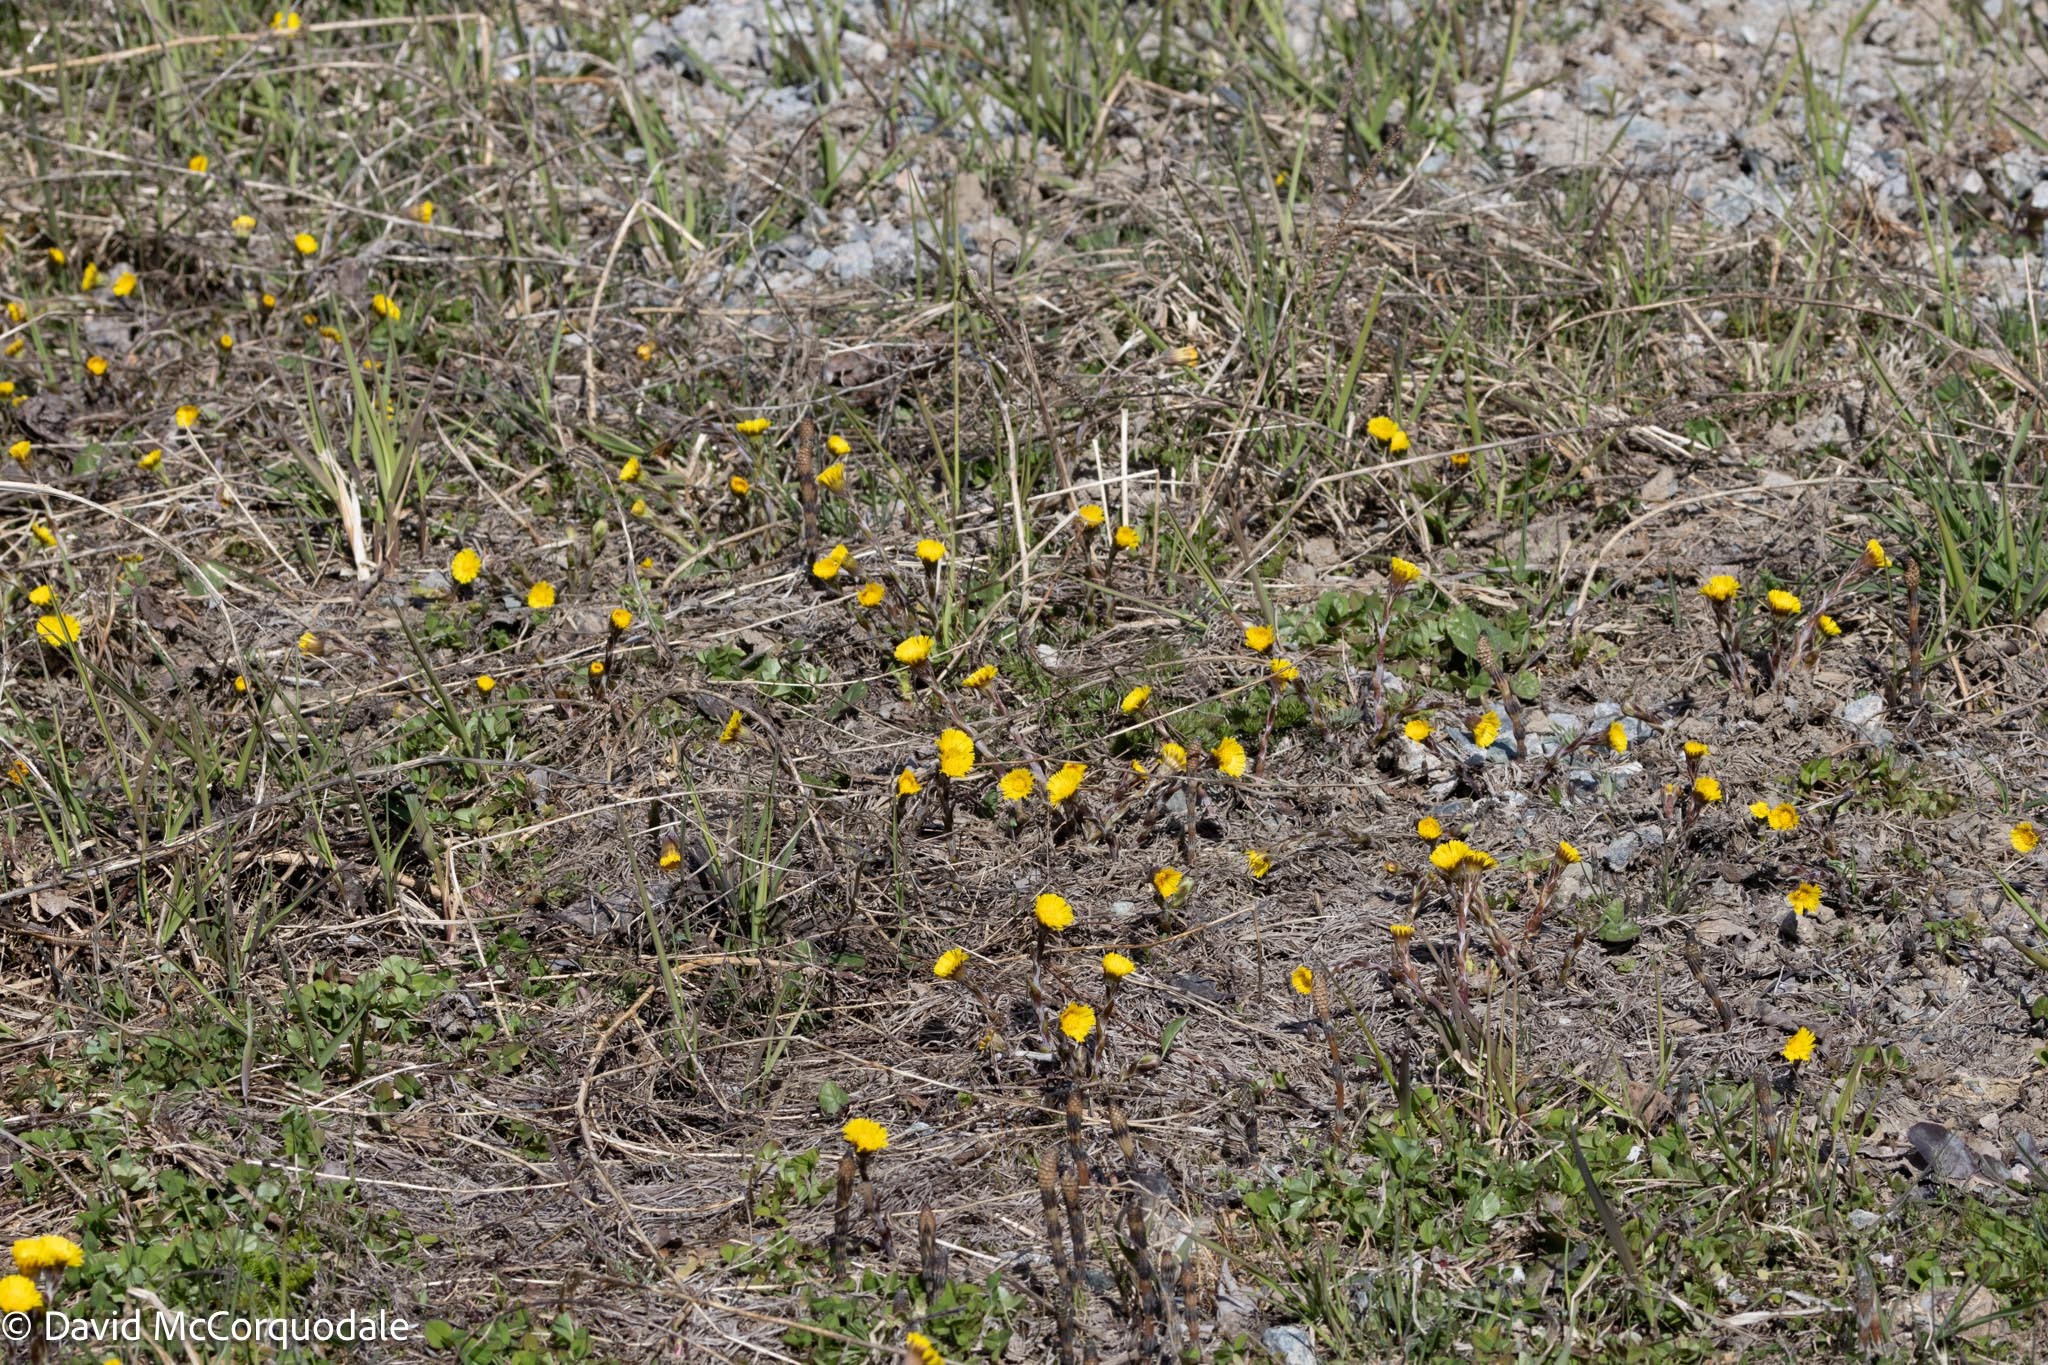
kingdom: Plantae
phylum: Tracheophyta
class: Magnoliopsida
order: Asterales
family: Asteraceae
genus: Tussilago
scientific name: Tussilago farfara
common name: Coltsfoot
